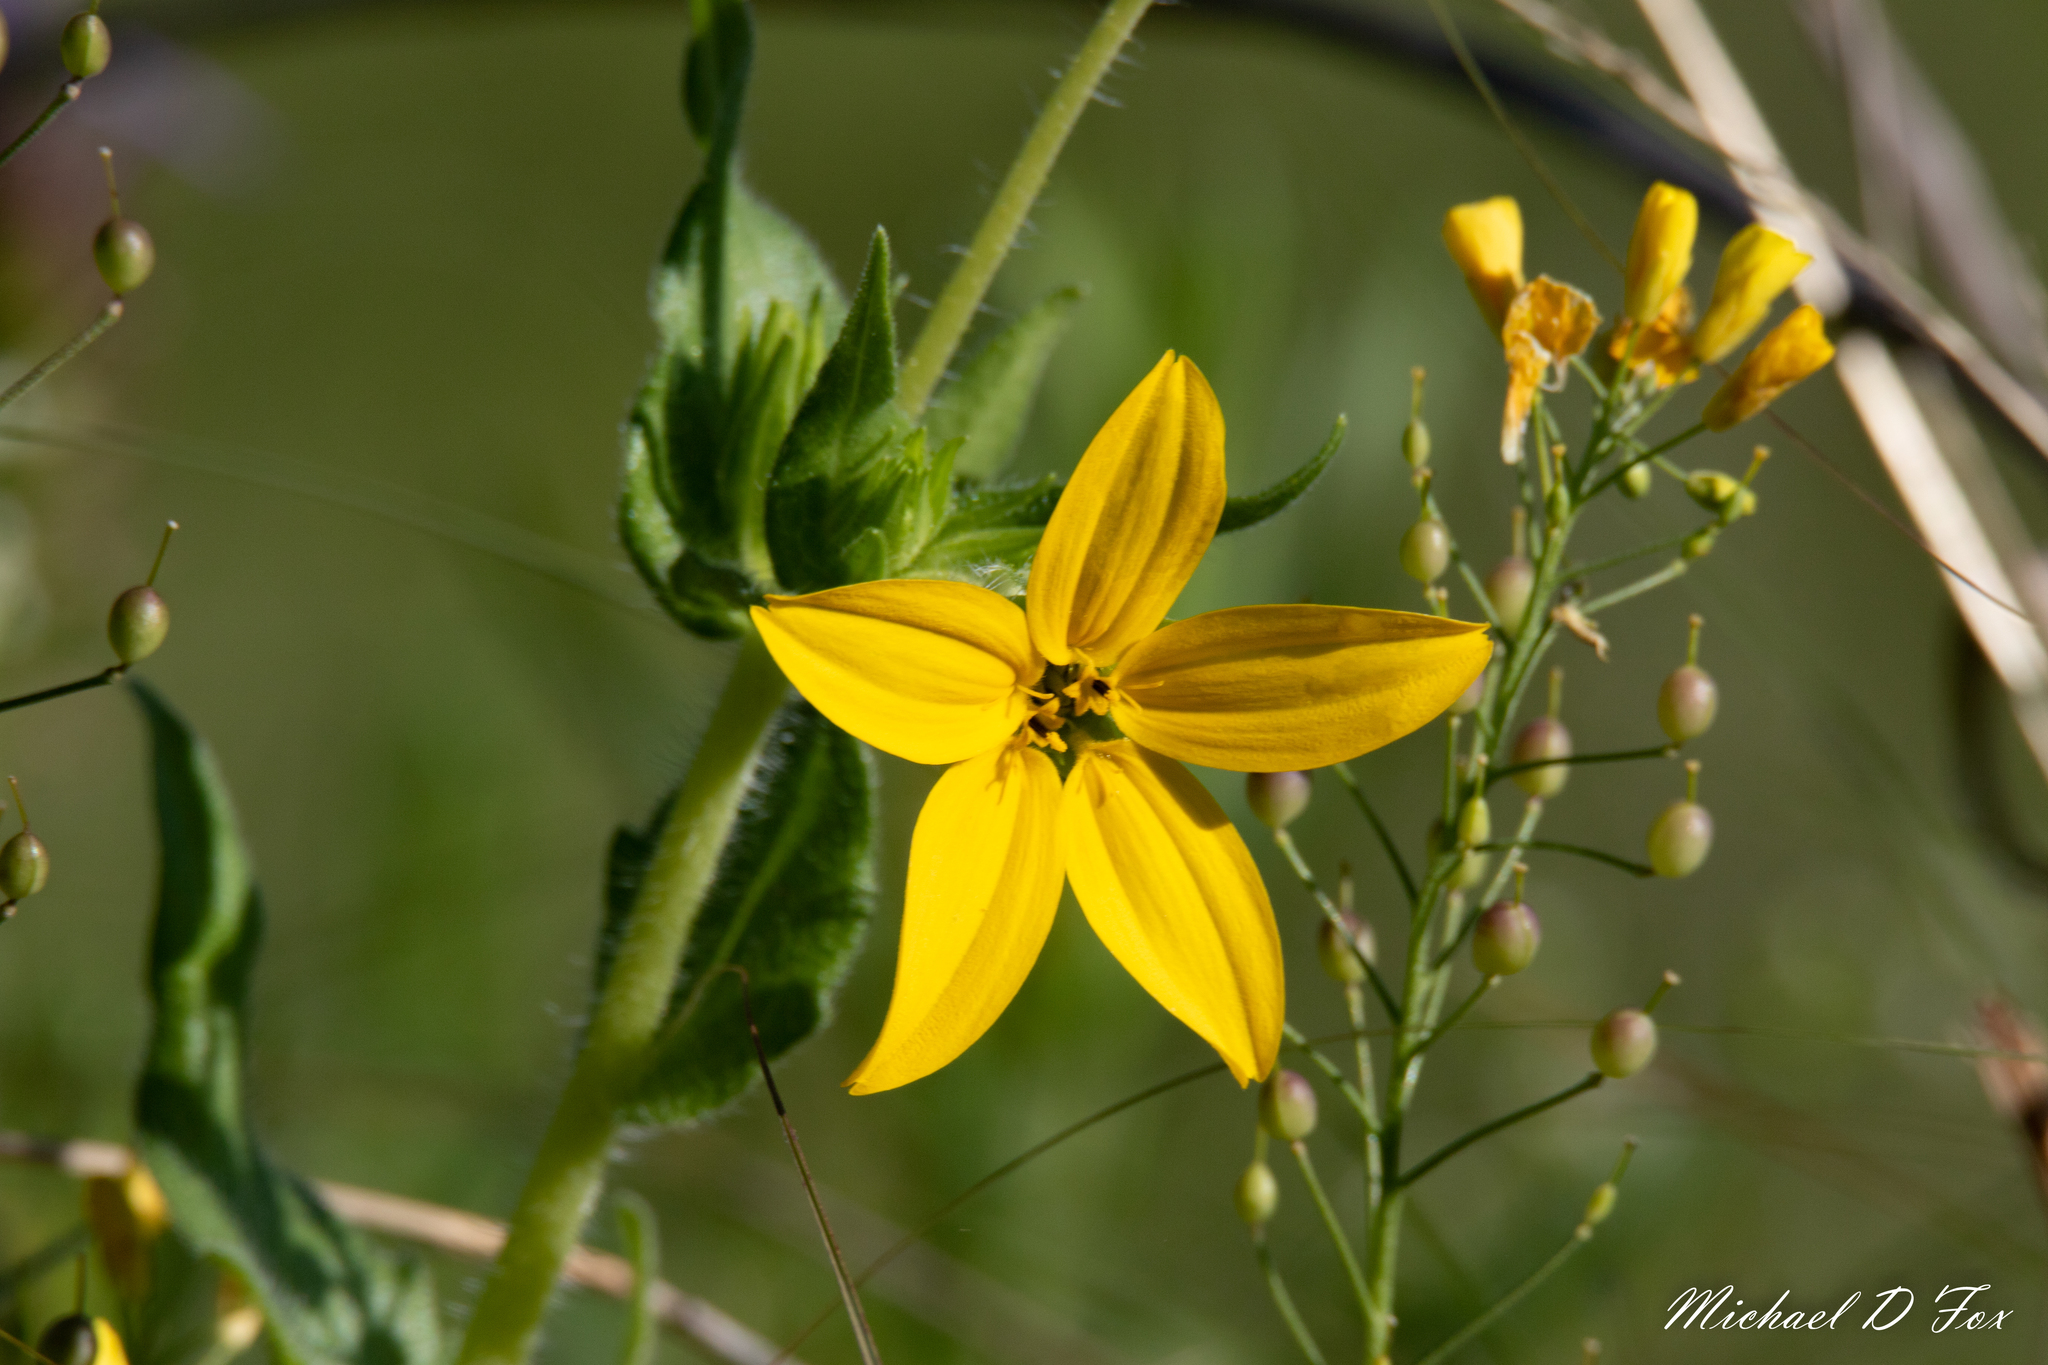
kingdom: Plantae
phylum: Tracheophyta
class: Magnoliopsida
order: Asterales
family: Asteraceae
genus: Lindheimera
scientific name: Lindheimera texana
